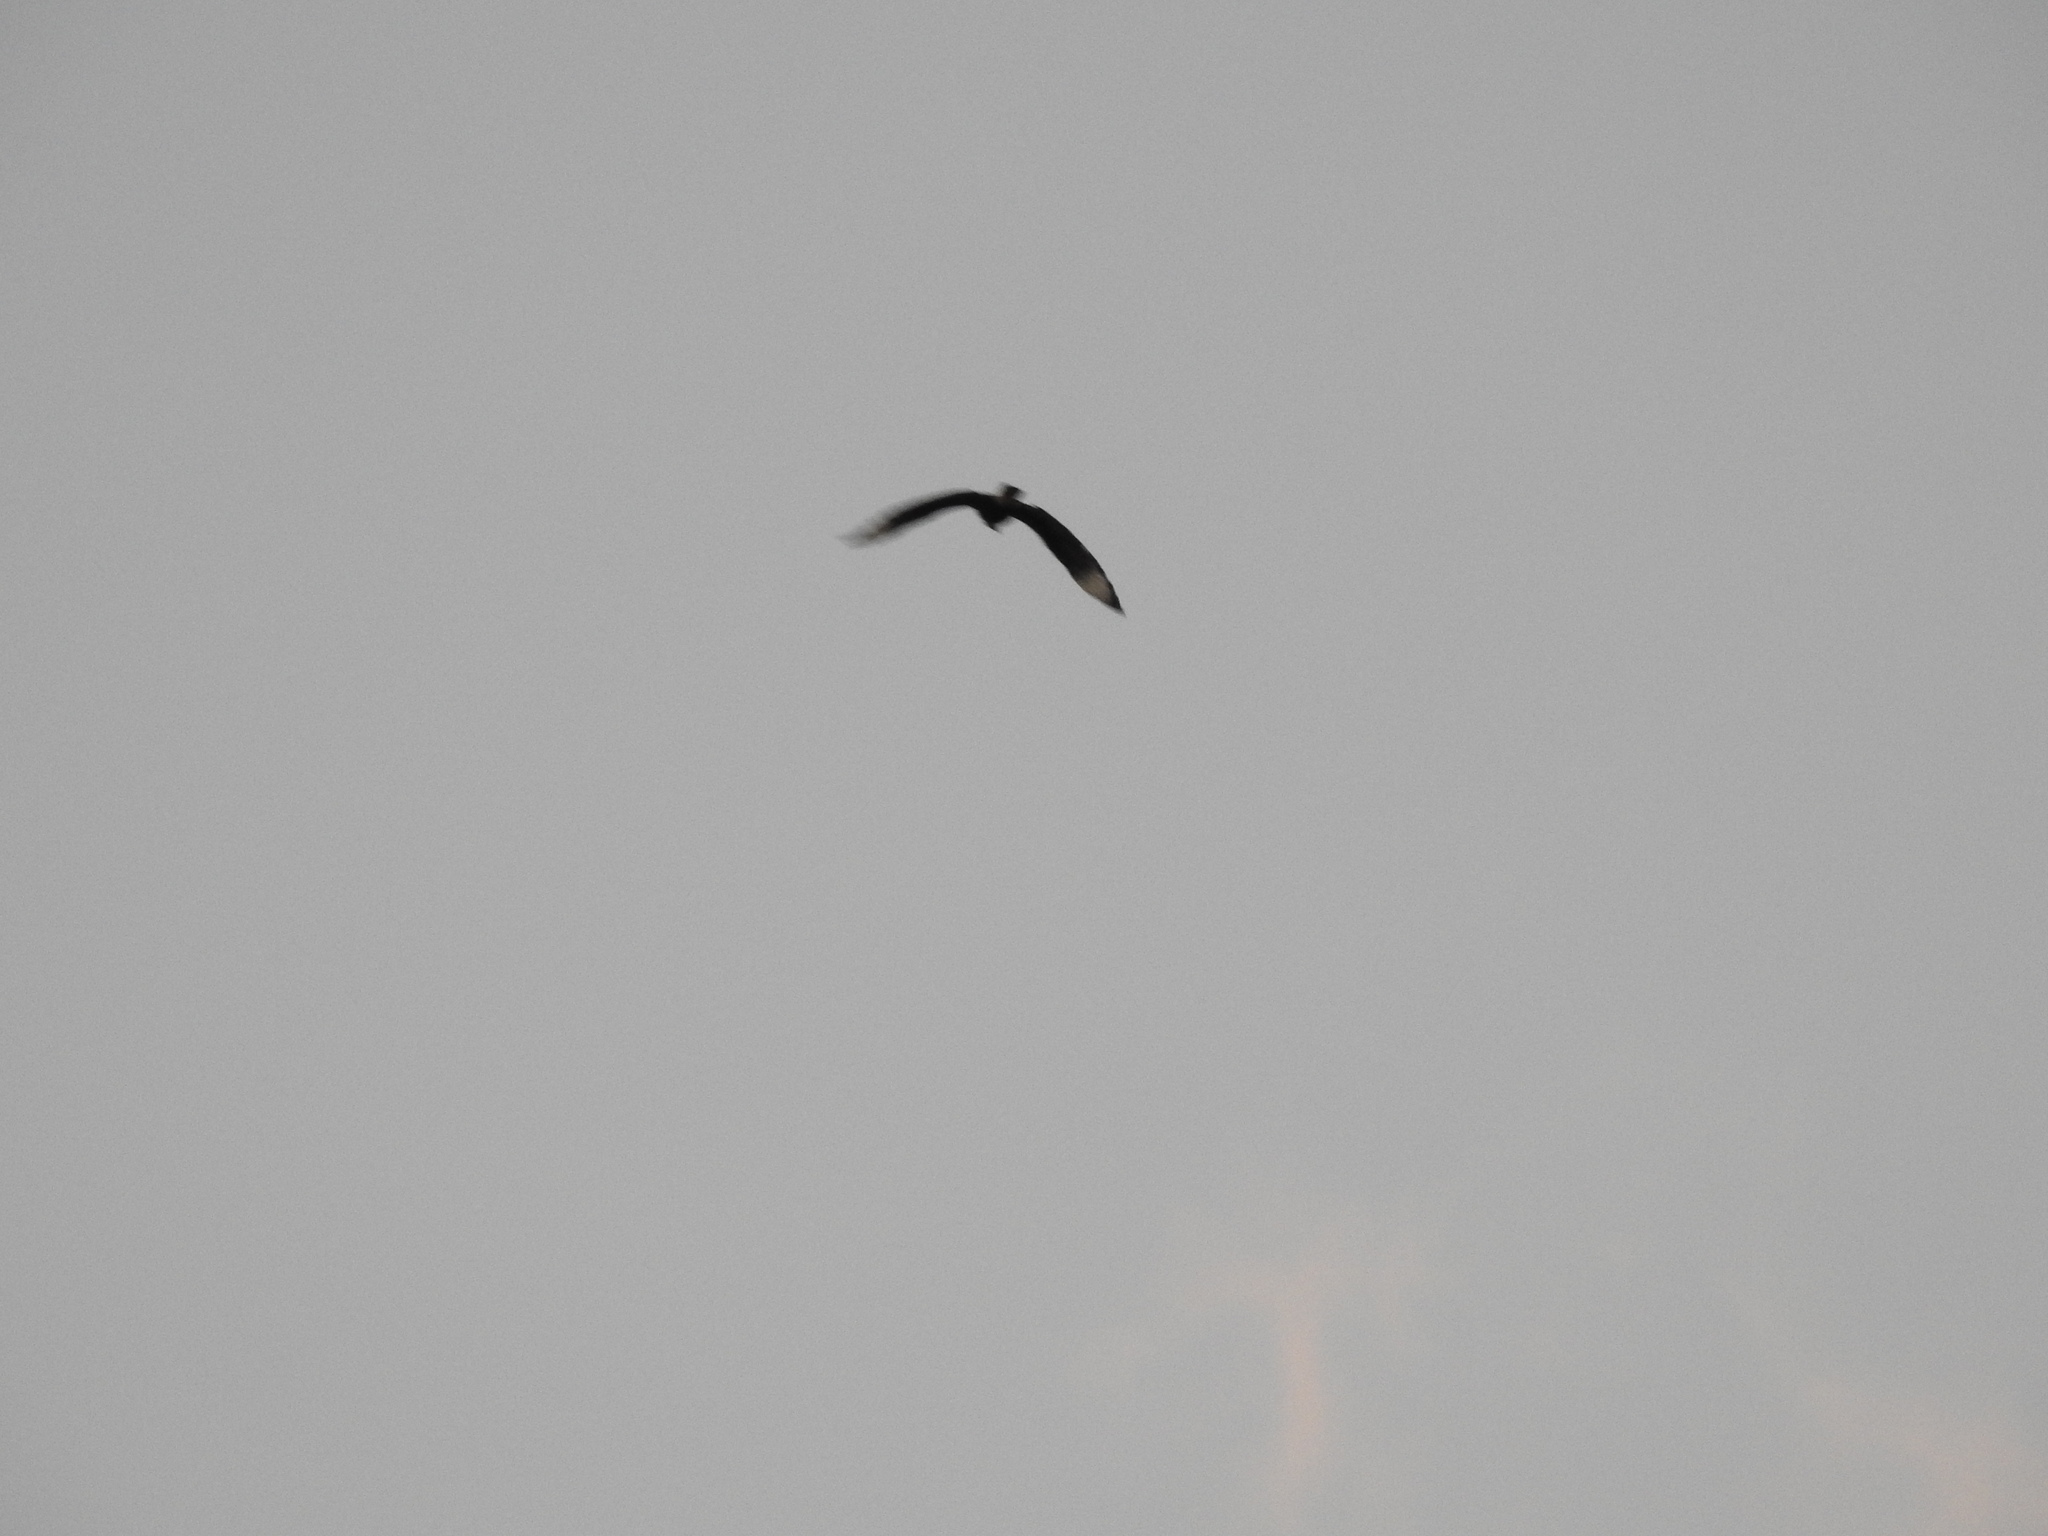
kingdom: Animalia
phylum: Chordata
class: Aves
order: Falconiformes
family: Falconidae
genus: Caracara
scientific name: Caracara plancus
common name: Southern caracara
